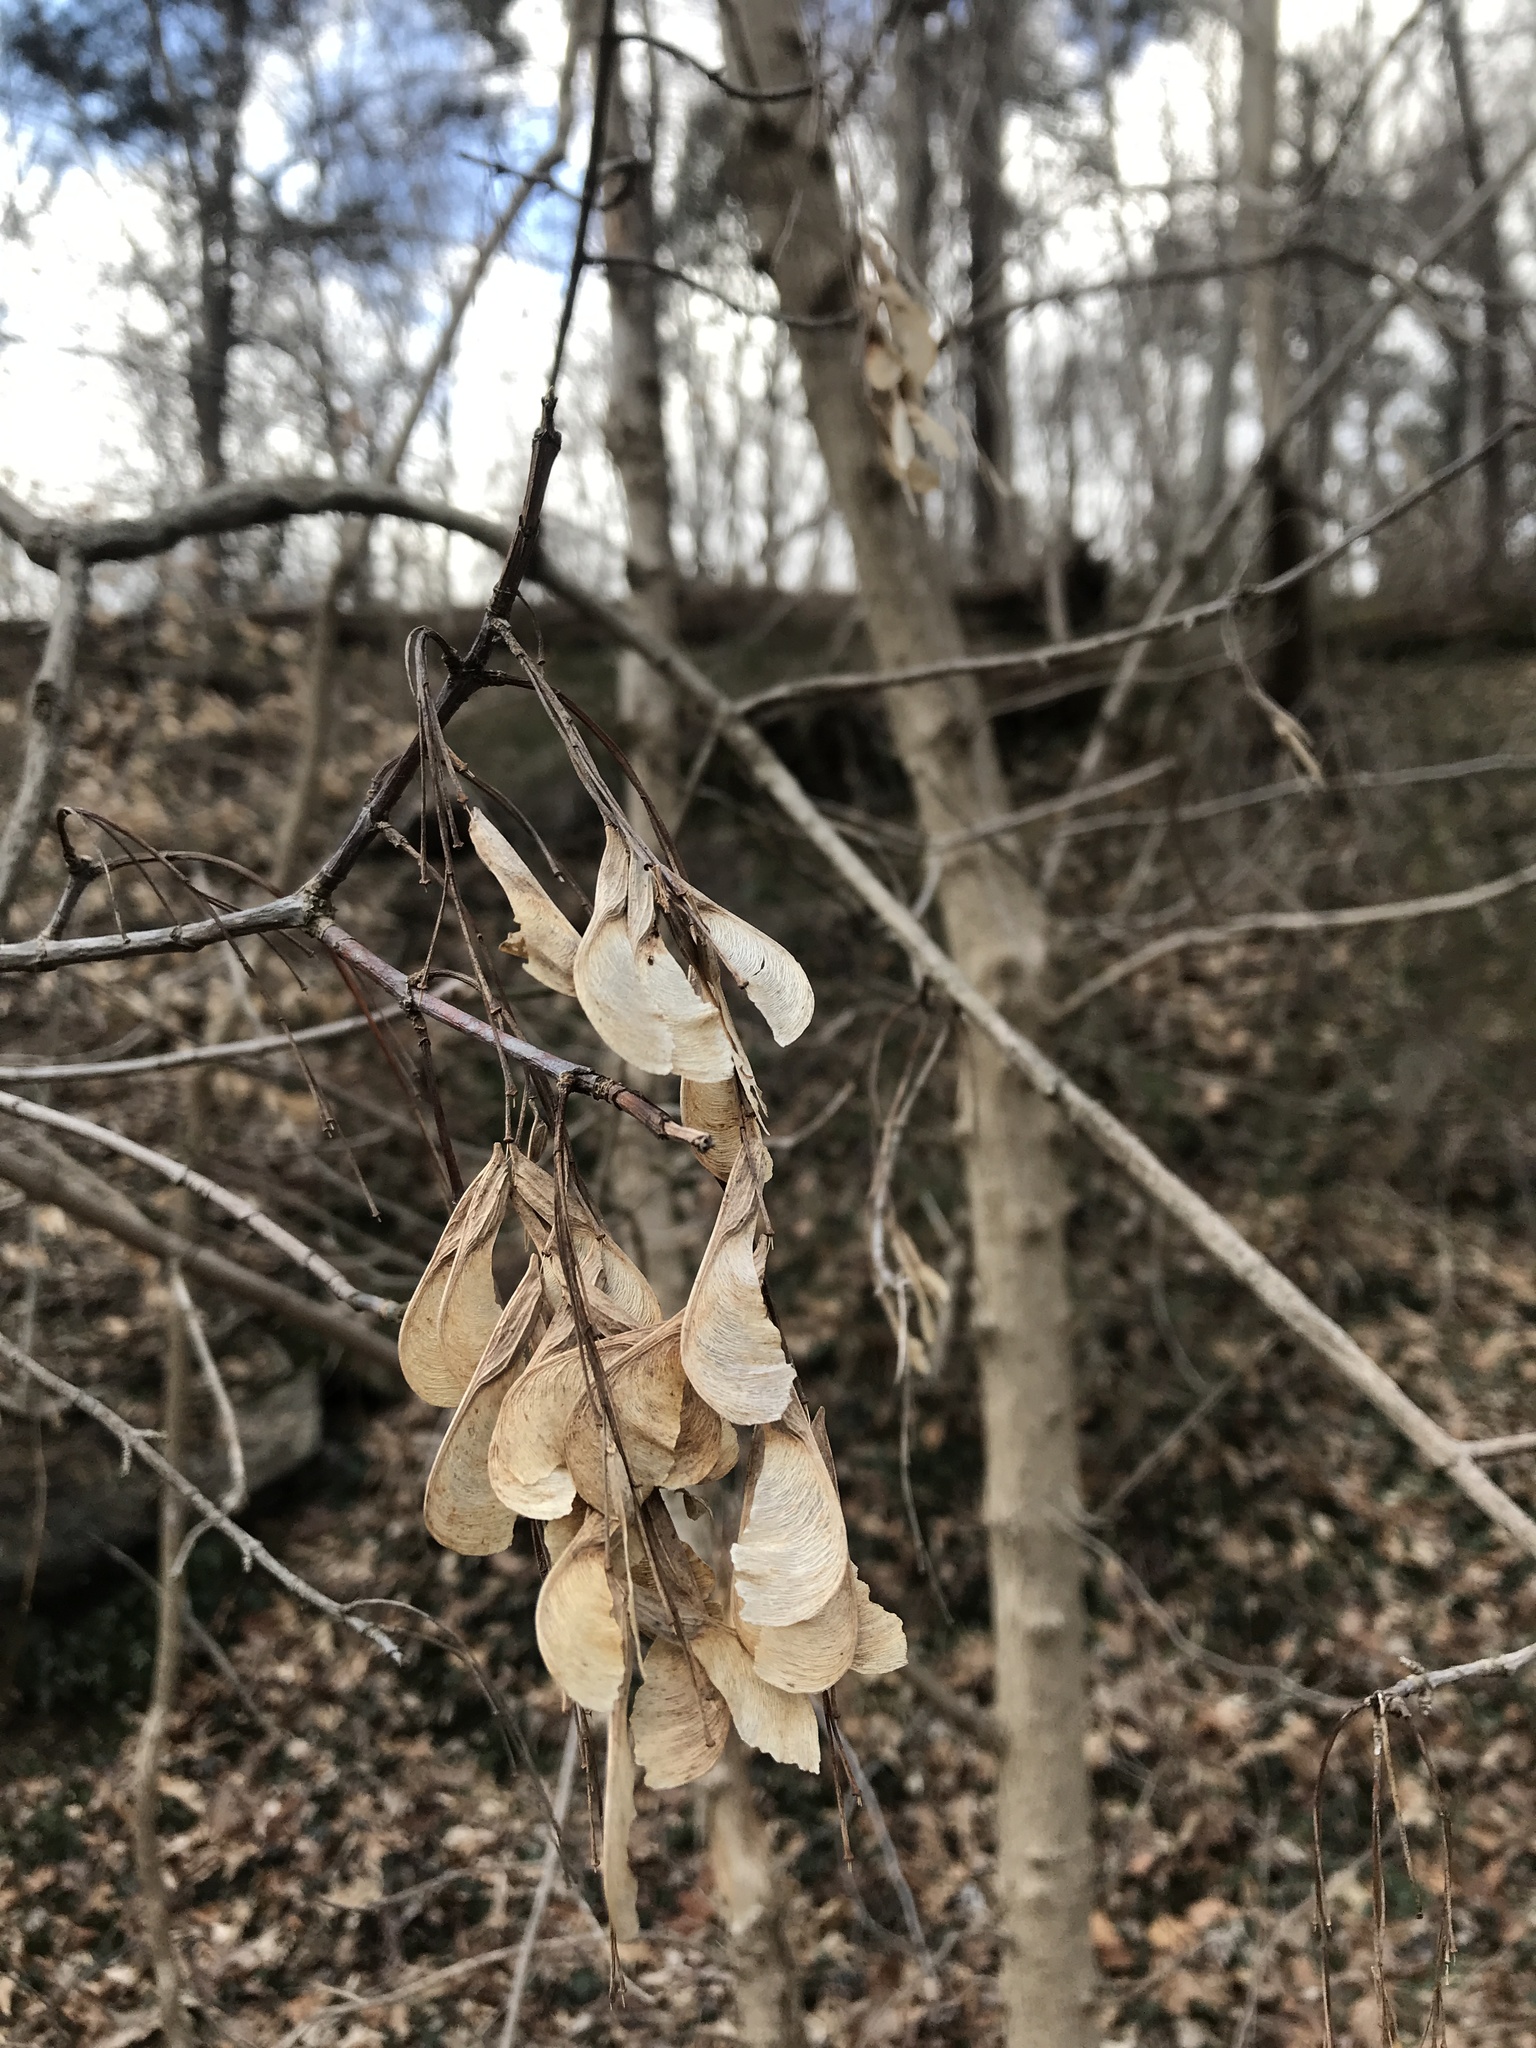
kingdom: Plantae
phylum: Tracheophyta
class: Magnoliopsida
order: Sapindales
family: Sapindaceae
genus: Acer
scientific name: Acer negundo
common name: Ashleaf maple
